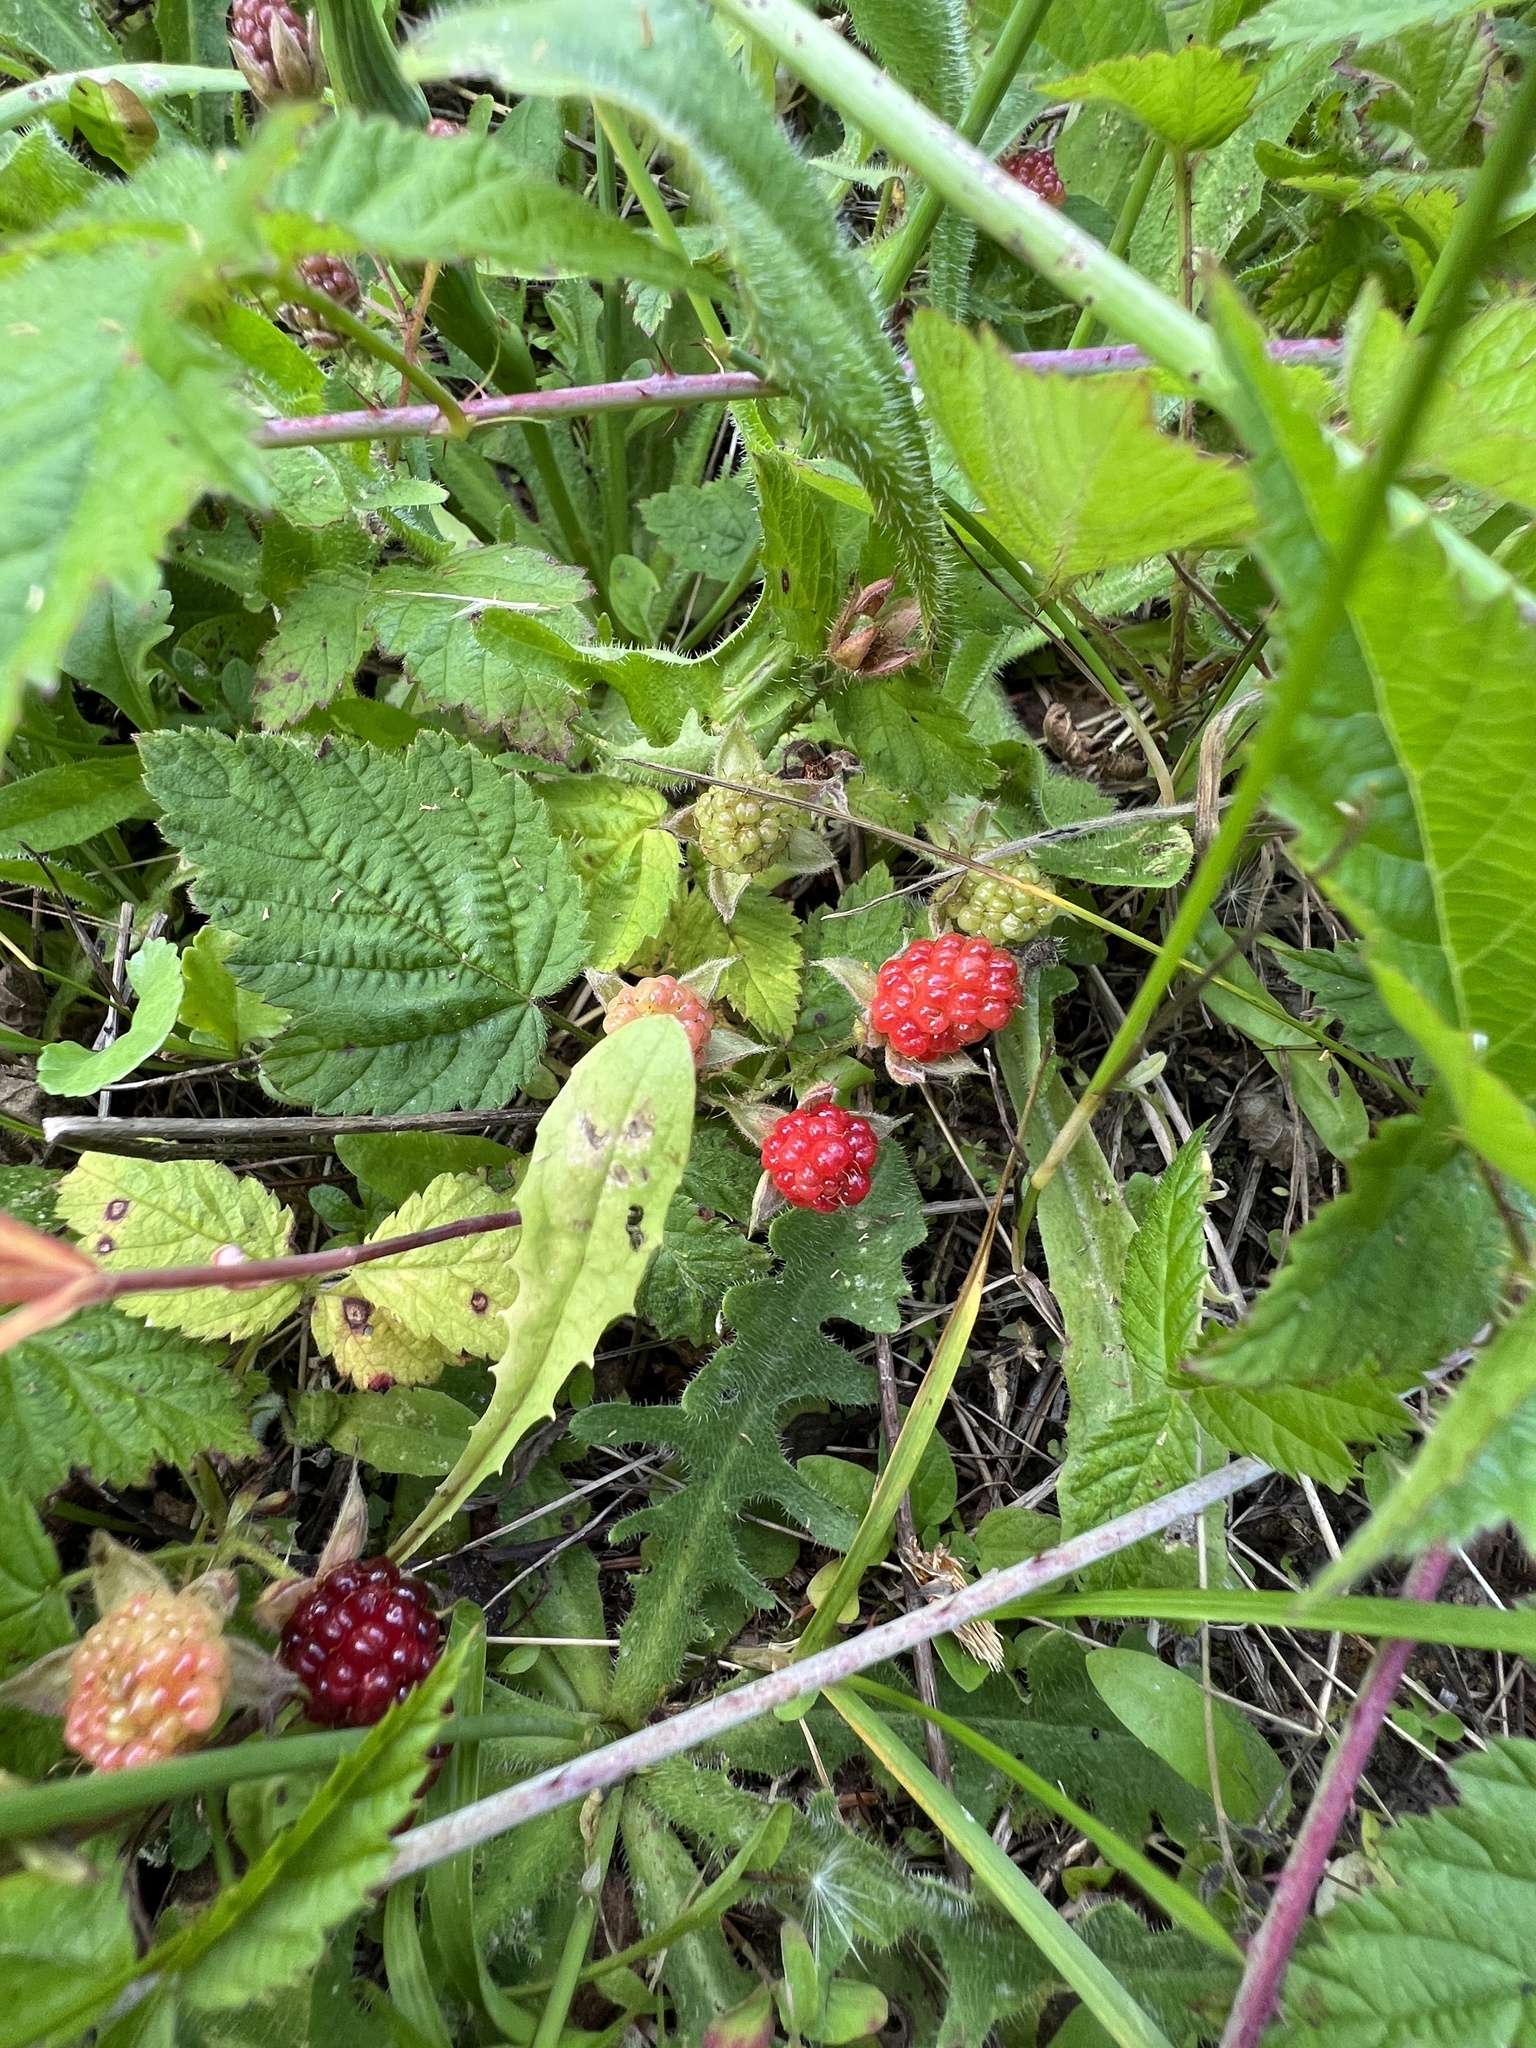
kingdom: Plantae
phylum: Tracheophyta
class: Magnoliopsida
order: Rosales
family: Rosaceae
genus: Rubus
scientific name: Rubus ursinus
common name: Pacific blackberry
